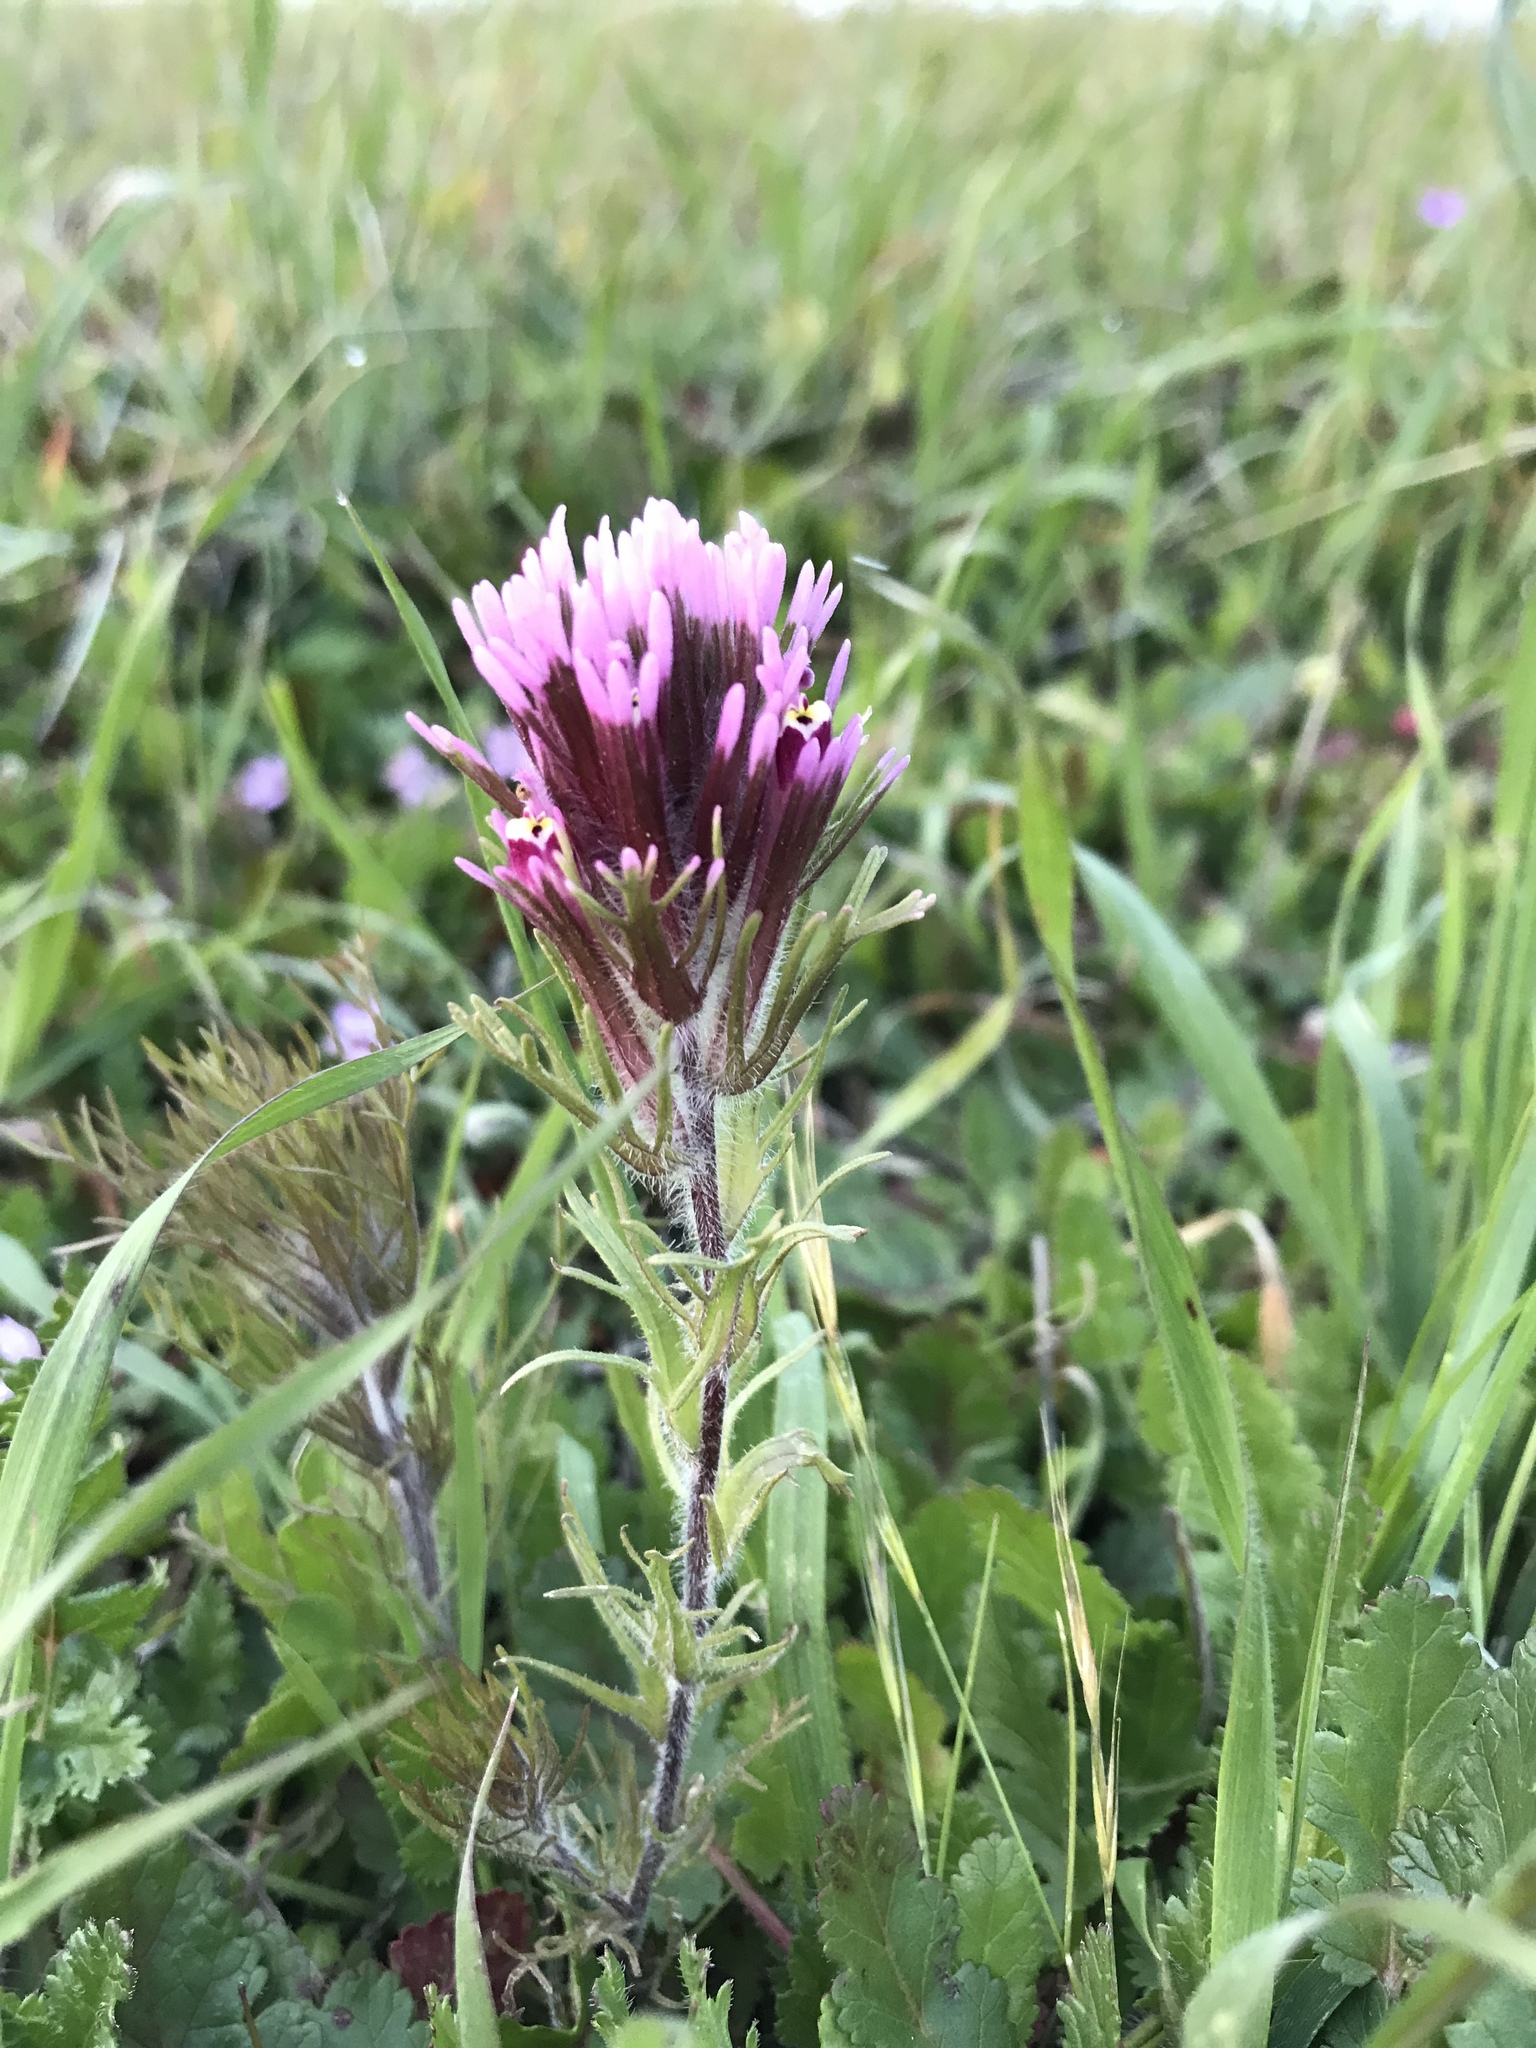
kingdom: Plantae
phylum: Tracheophyta
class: Magnoliopsida
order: Lamiales
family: Orobanchaceae
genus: Castilleja
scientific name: Castilleja exserta
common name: Purple owl-clover
